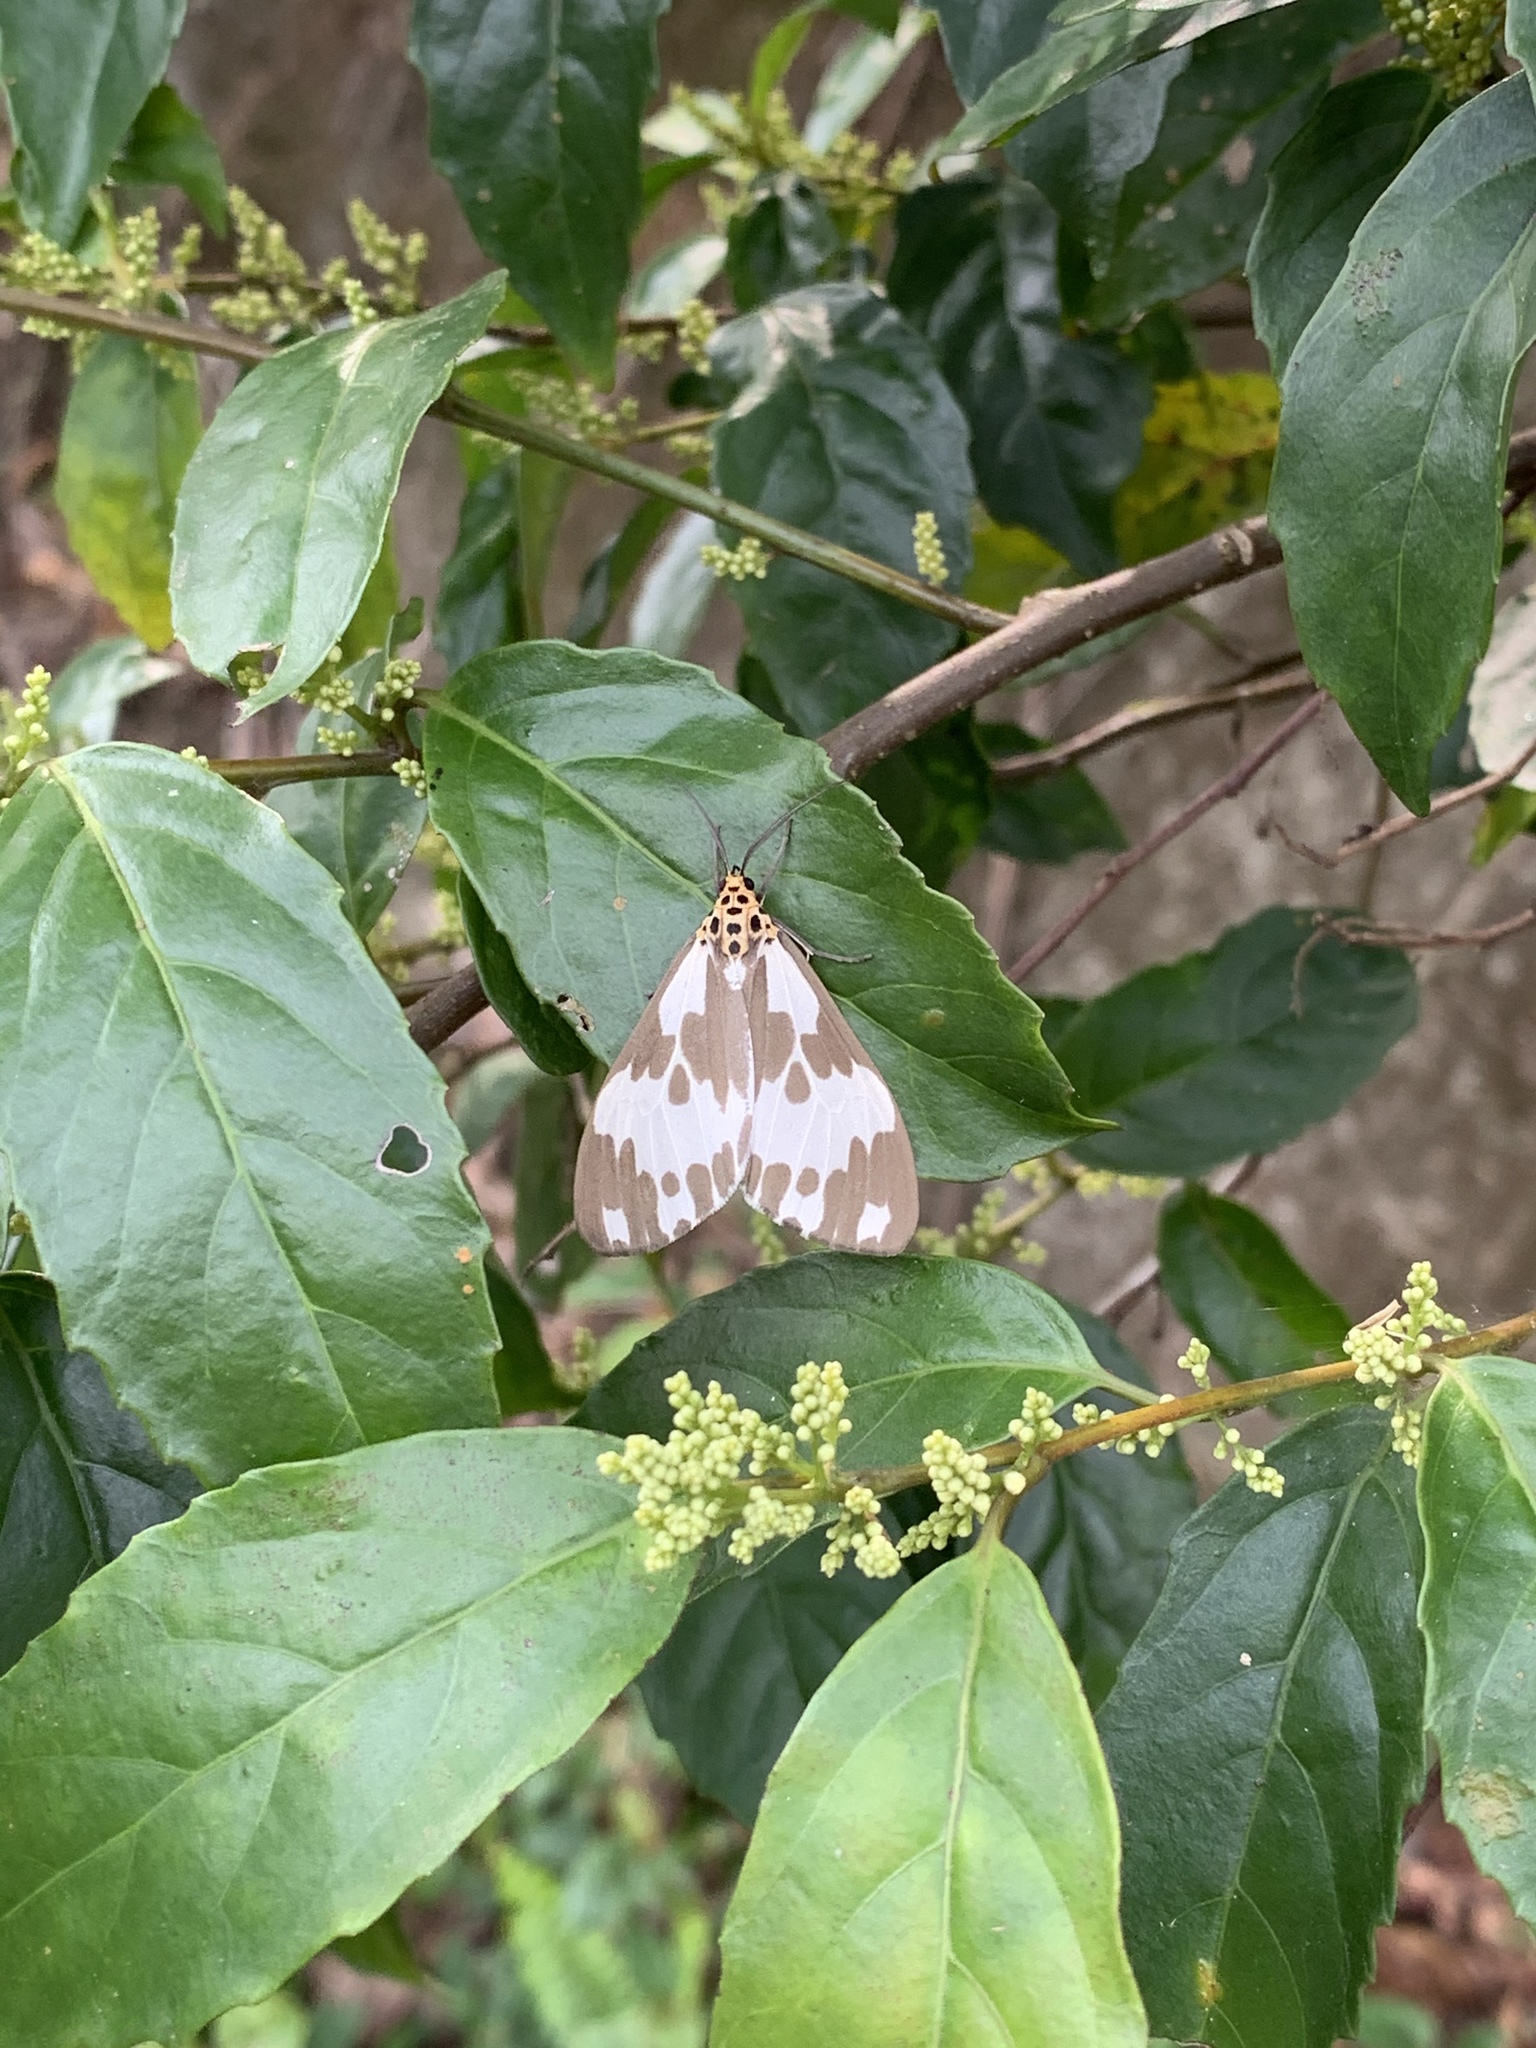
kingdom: Animalia
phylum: Arthropoda
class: Insecta
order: Lepidoptera
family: Erebidae
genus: Nyctemera
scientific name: Nyctemera carissima
